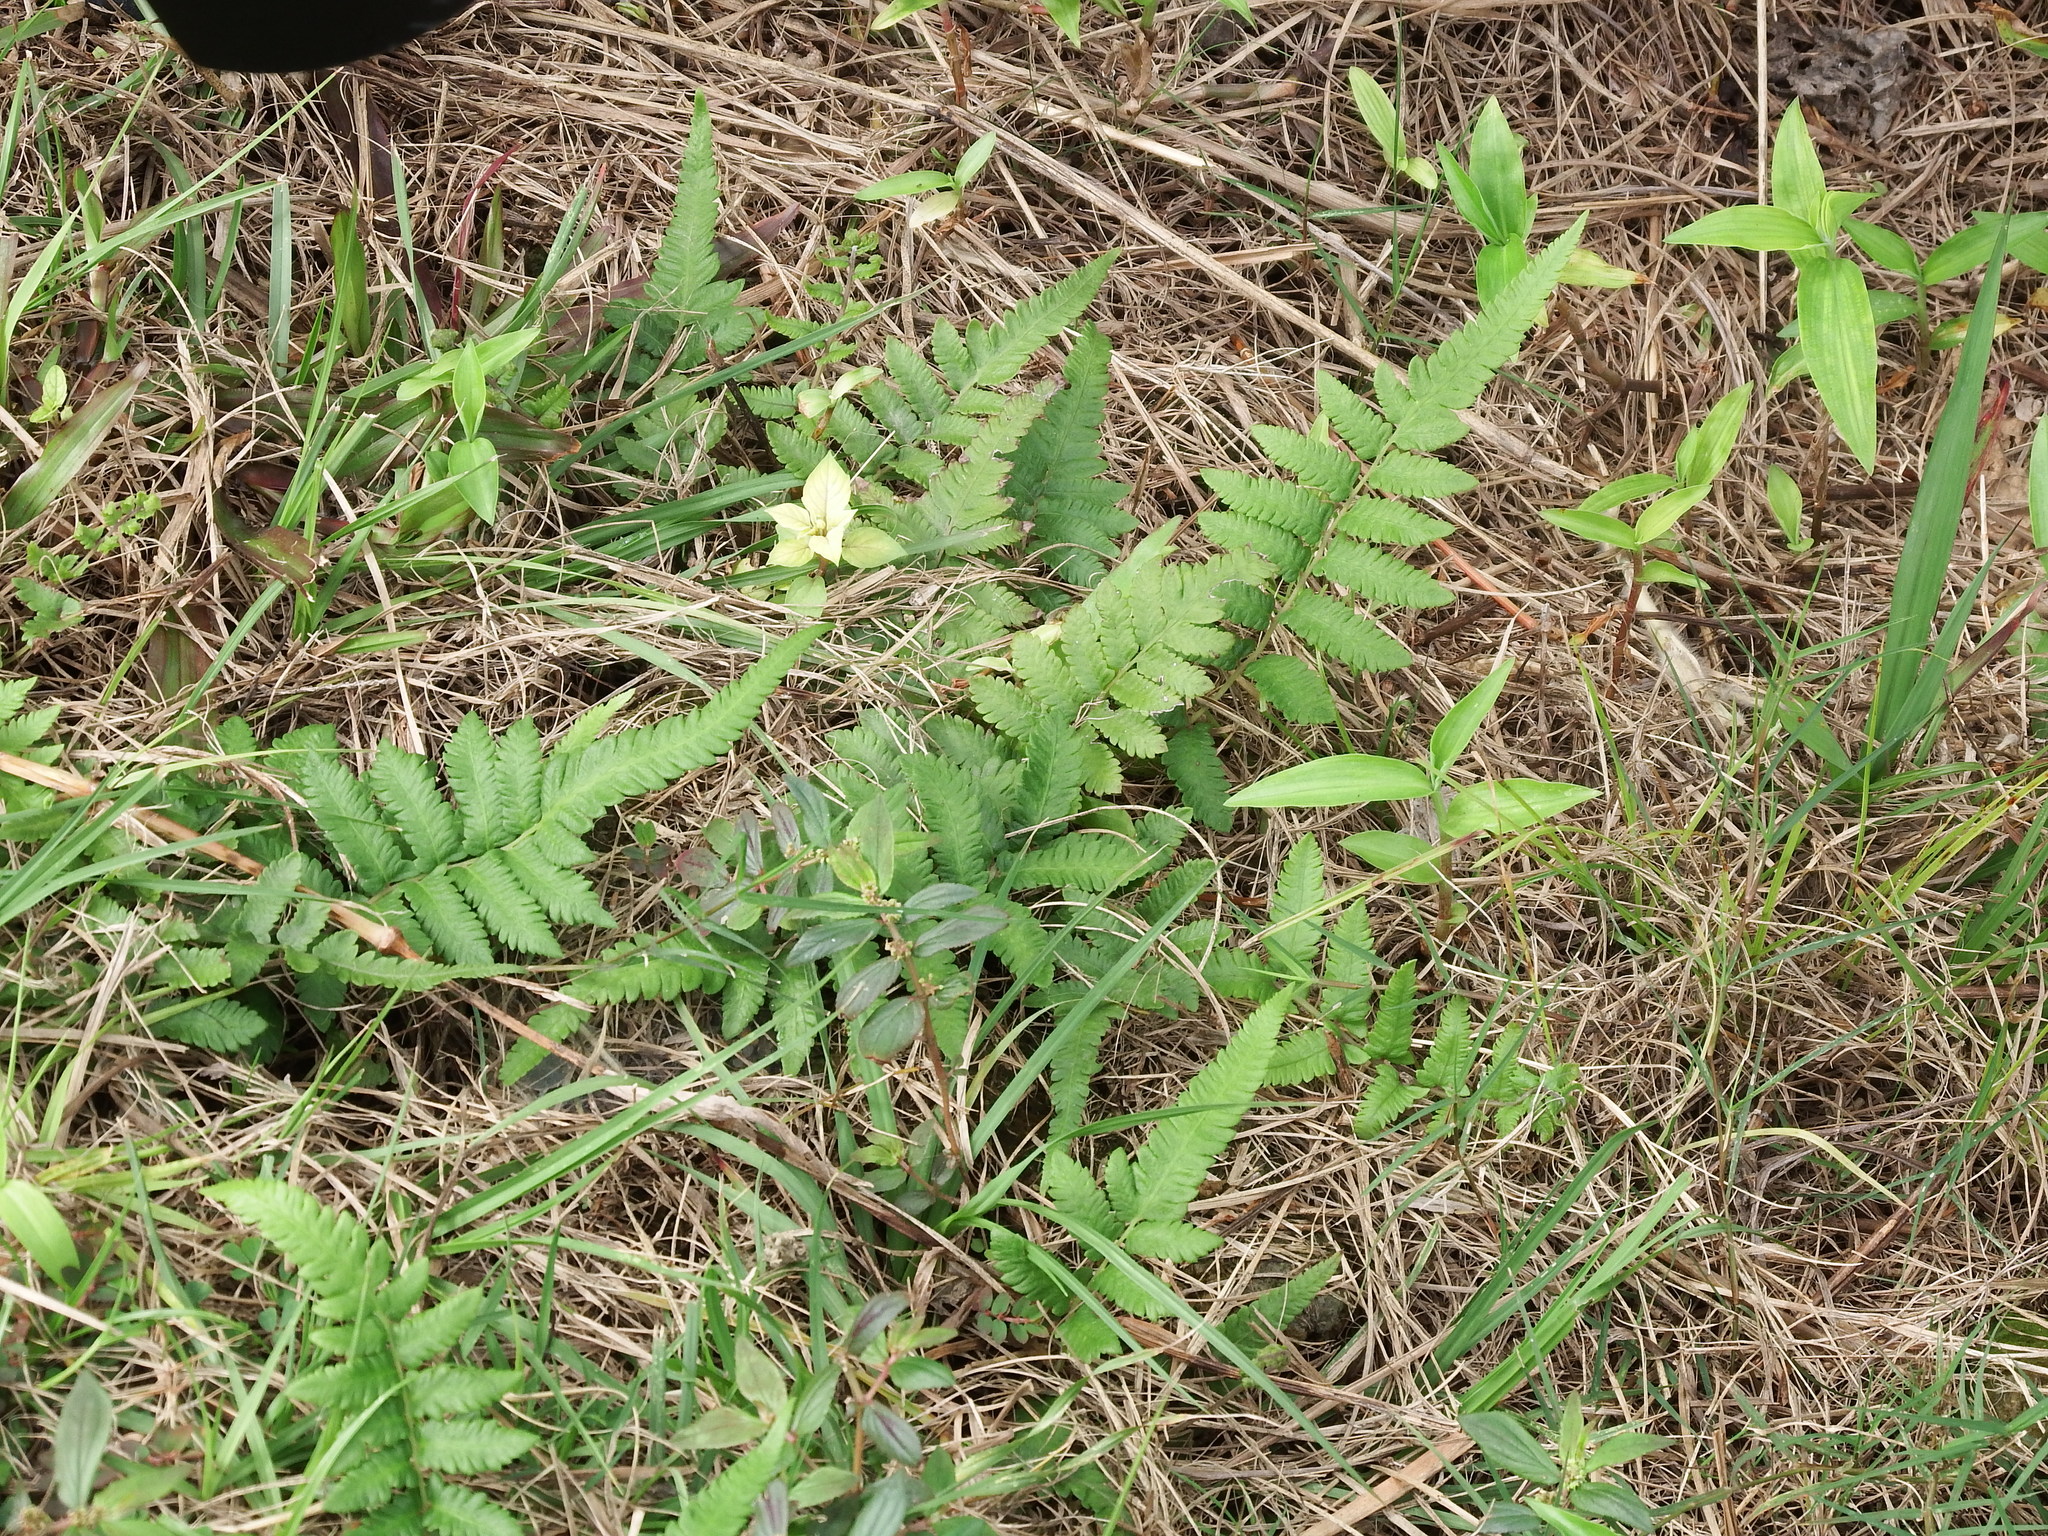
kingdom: Plantae
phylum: Tracheophyta
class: Polypodiopsida
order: Polypodiales
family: Thelypteridaceae
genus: Christella
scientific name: Christella acuminata
